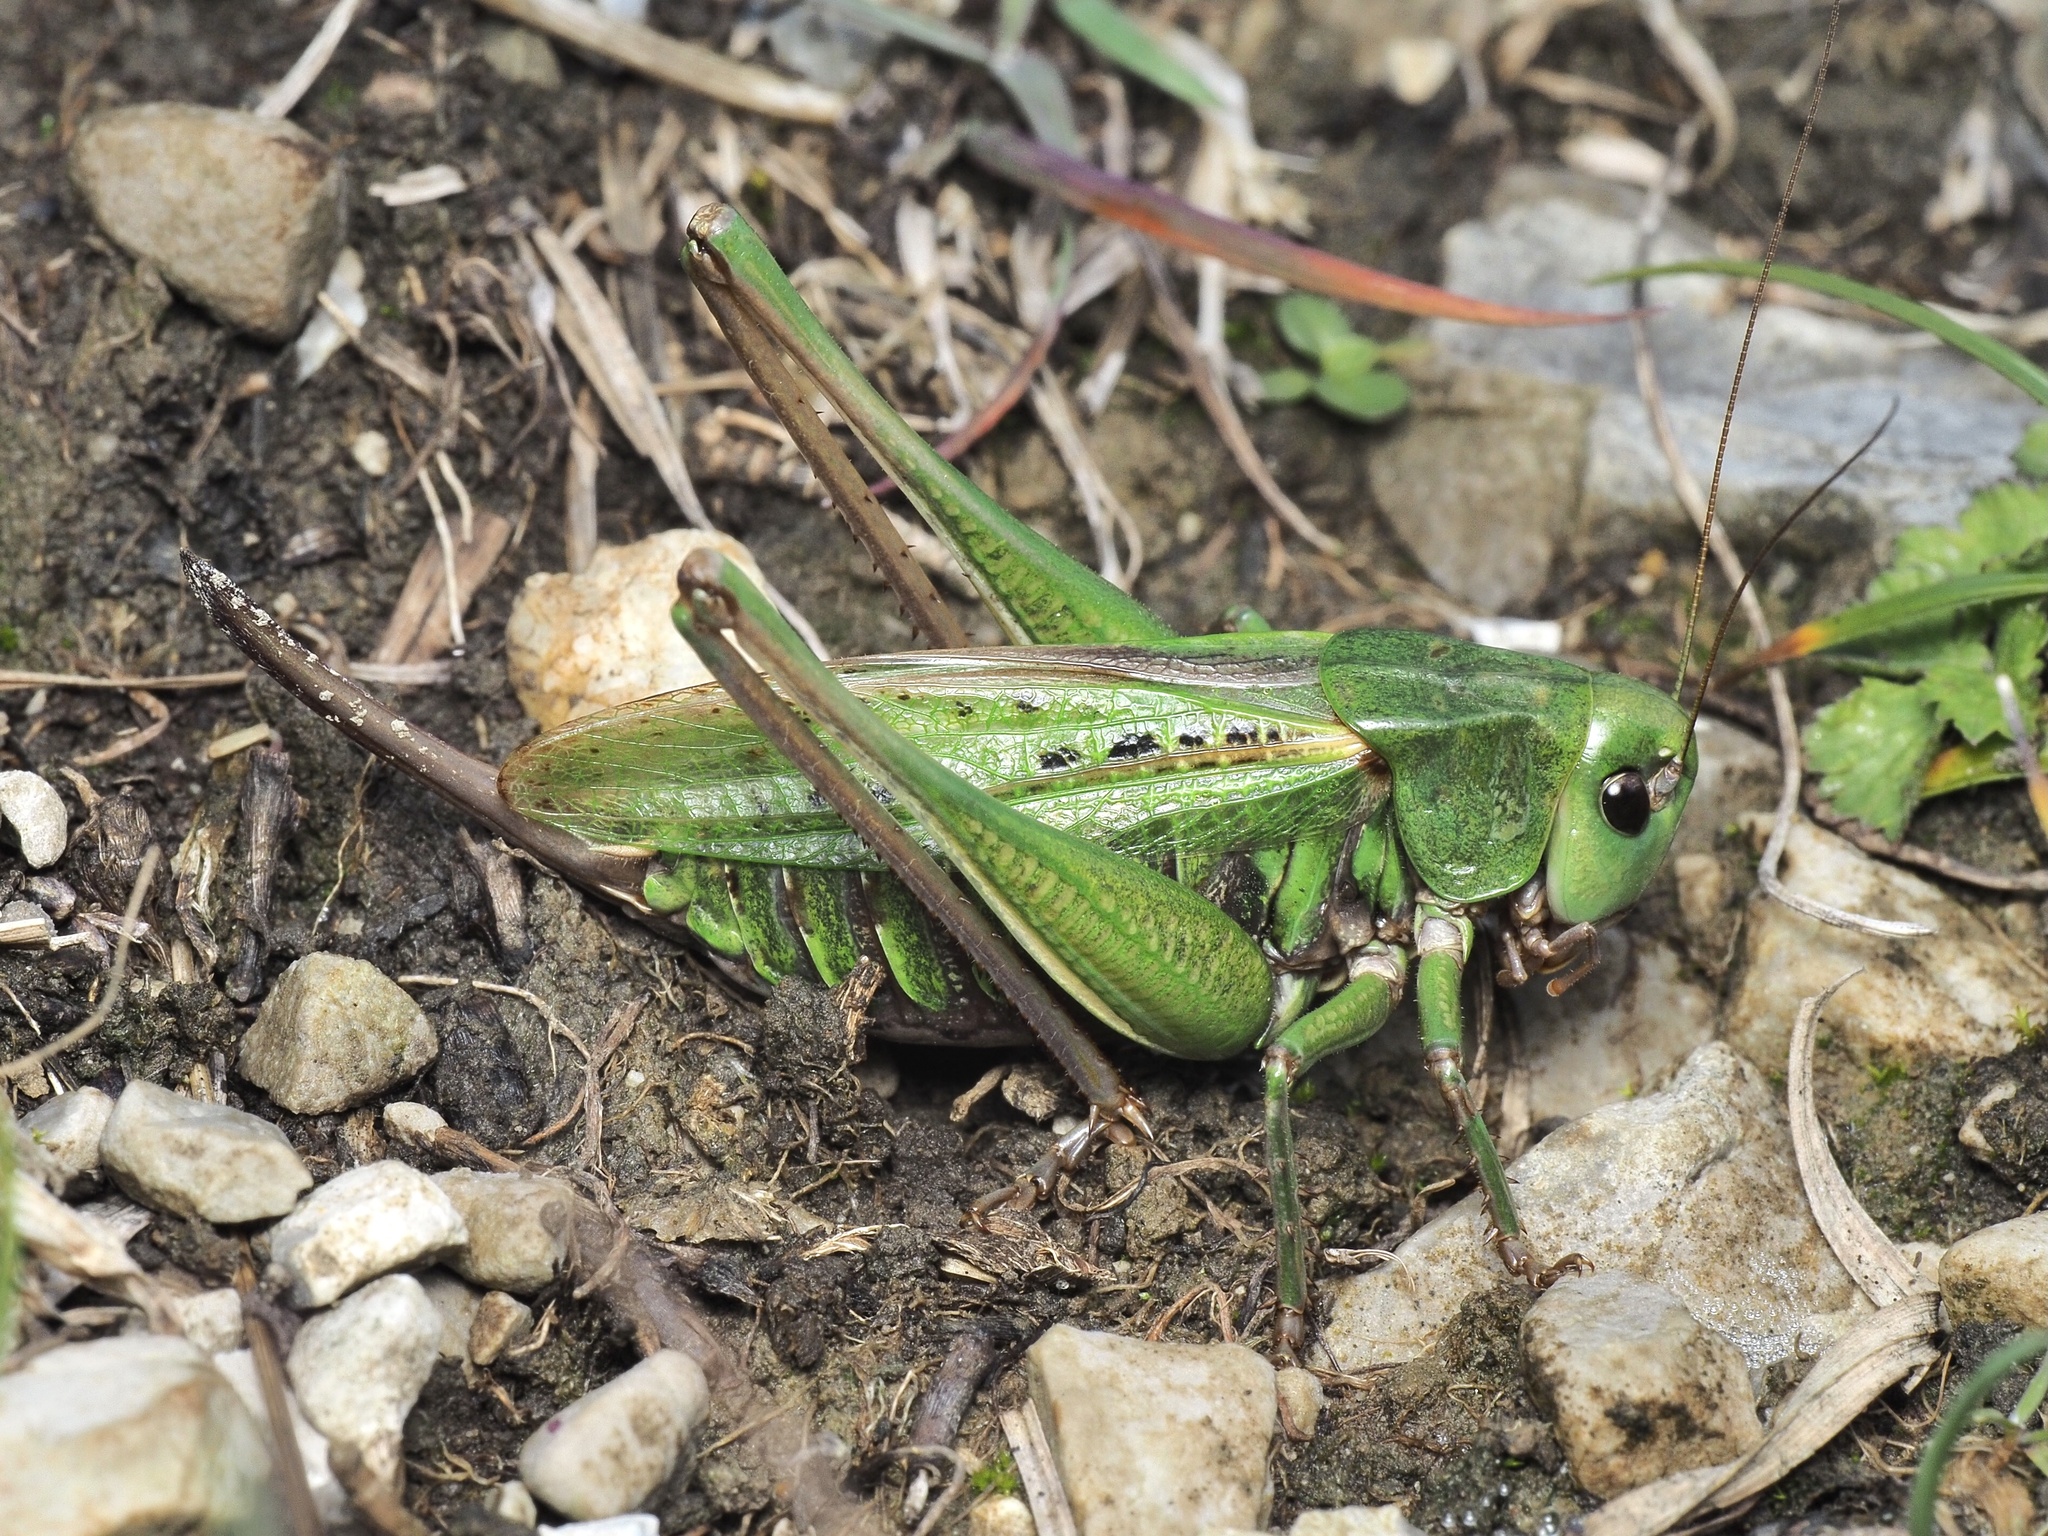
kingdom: Animalia
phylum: Arthropoda
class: Insecta
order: Orthoptera
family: Tettigoniidae
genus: Decticus
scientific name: Decticus verrucivorus
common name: Wart-biter
